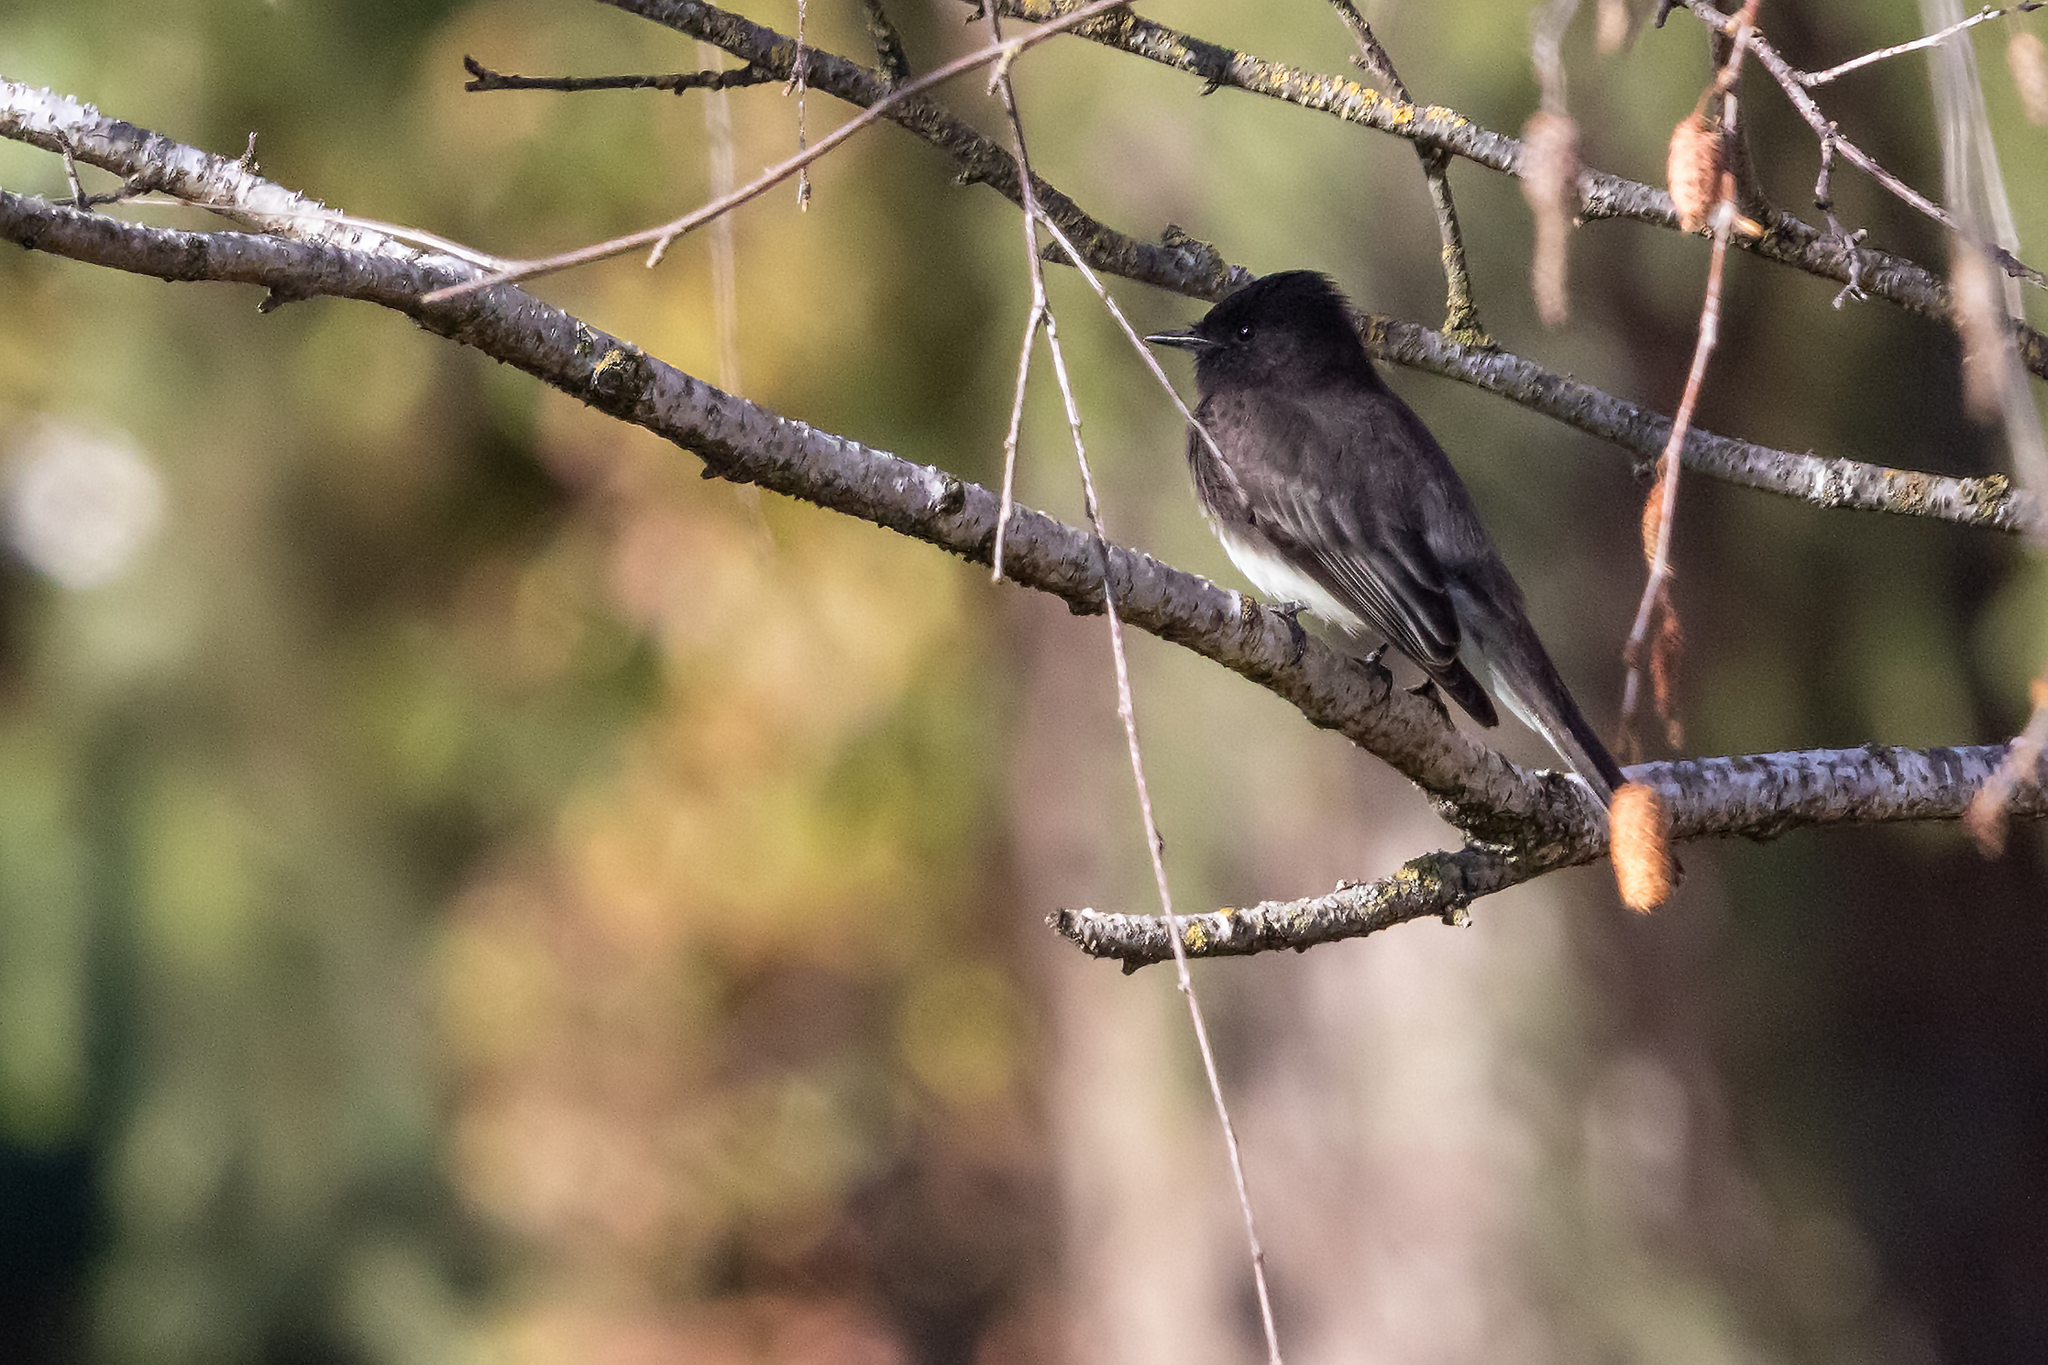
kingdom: Animalia
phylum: Chordata
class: Aves
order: Passeriformes
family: Tyrannidae
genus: Sayornis
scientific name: Sayornis nigricans
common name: Black phoebe
